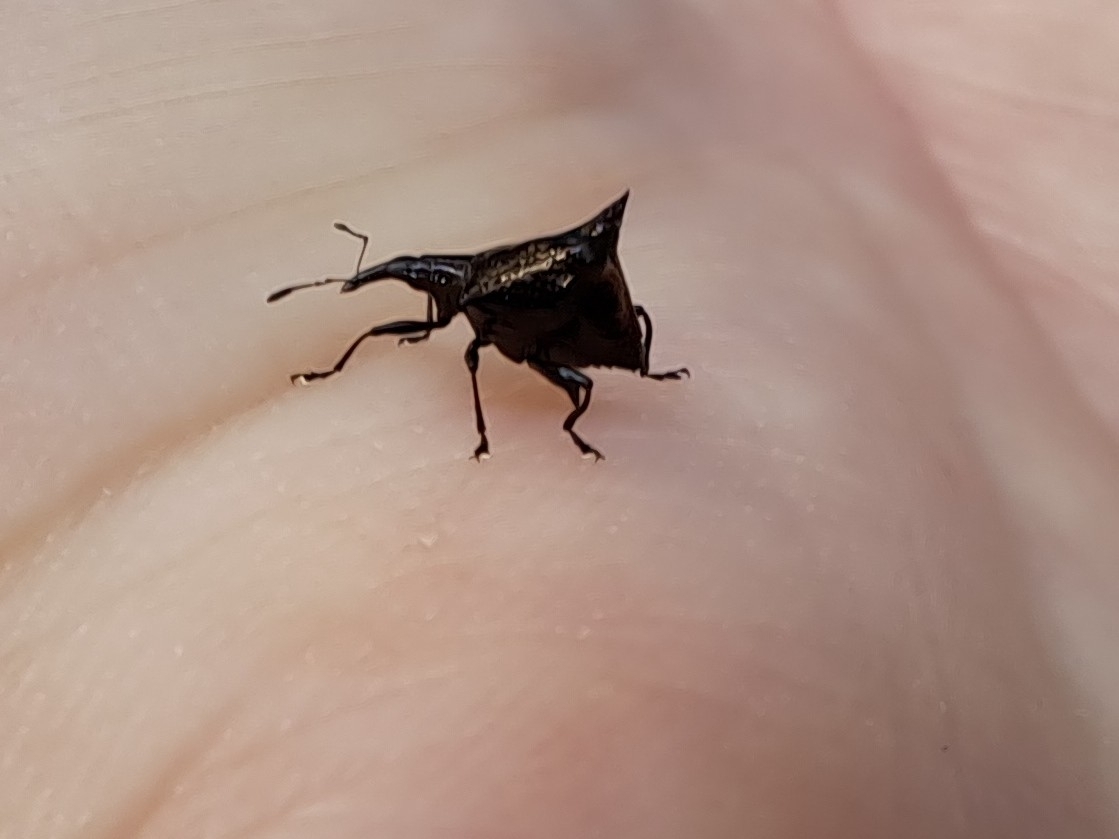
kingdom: Animalia
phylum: Arthropoda
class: Insecta
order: Coleoptera
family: Curculionidae
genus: Scolopterus
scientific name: Scolopterus penicillatus
